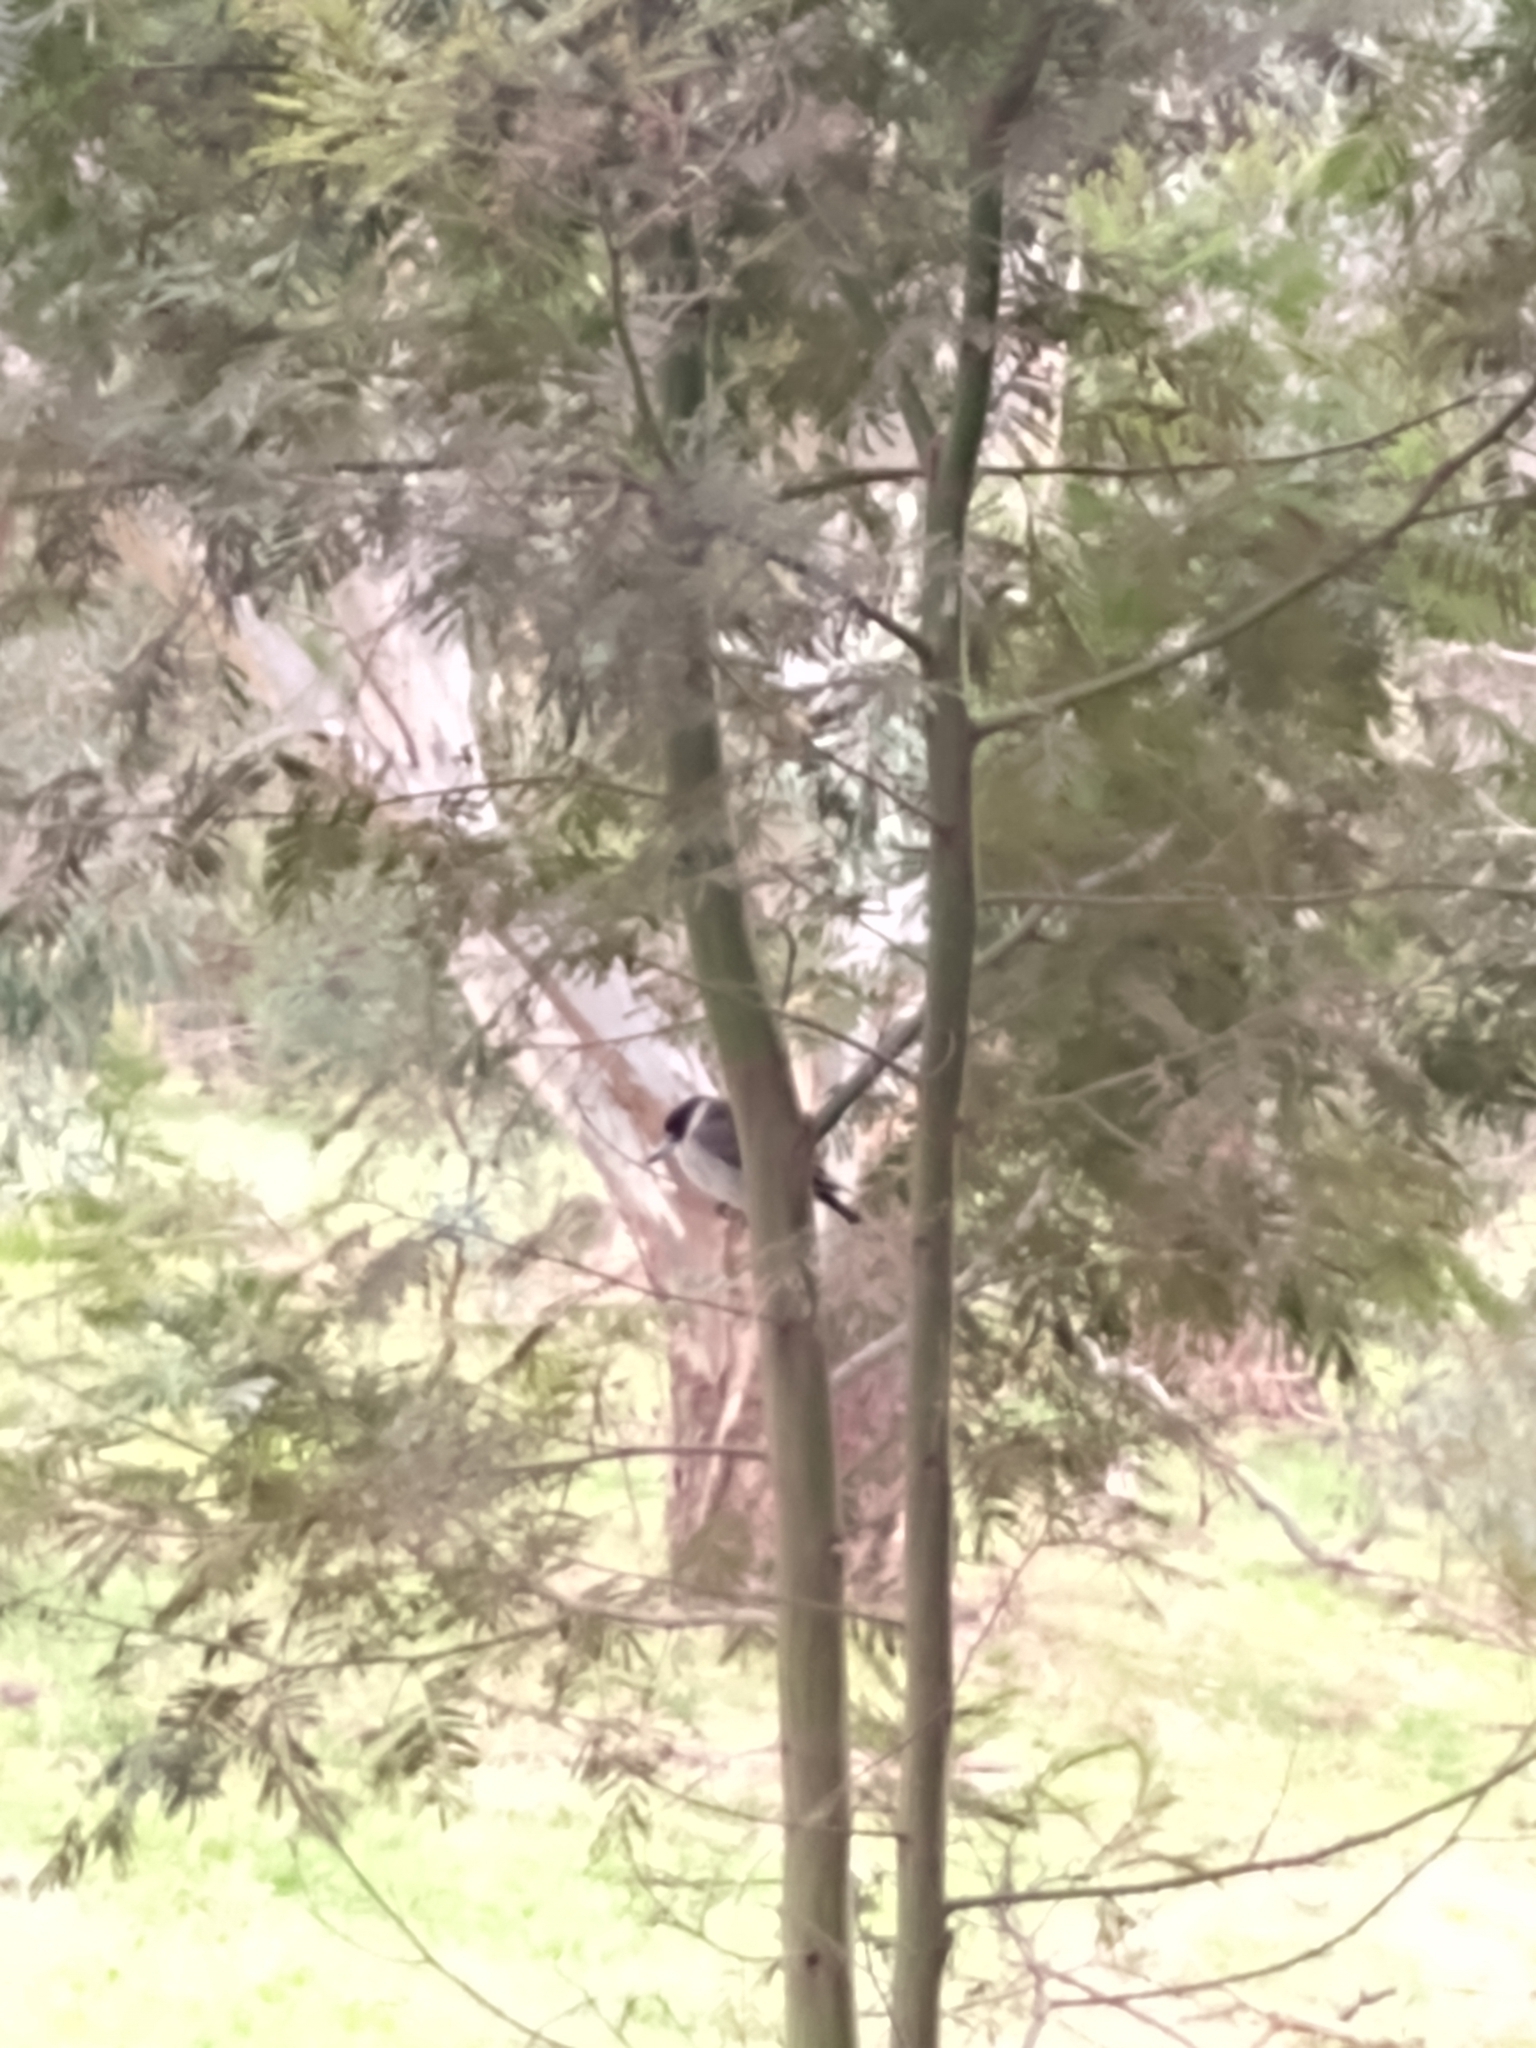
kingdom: Animalia
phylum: Chordata
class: Aves
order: Passeriformes
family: Cracticidae
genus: Cracticus
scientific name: Cracticus torquatus
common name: Grey butcherbird
